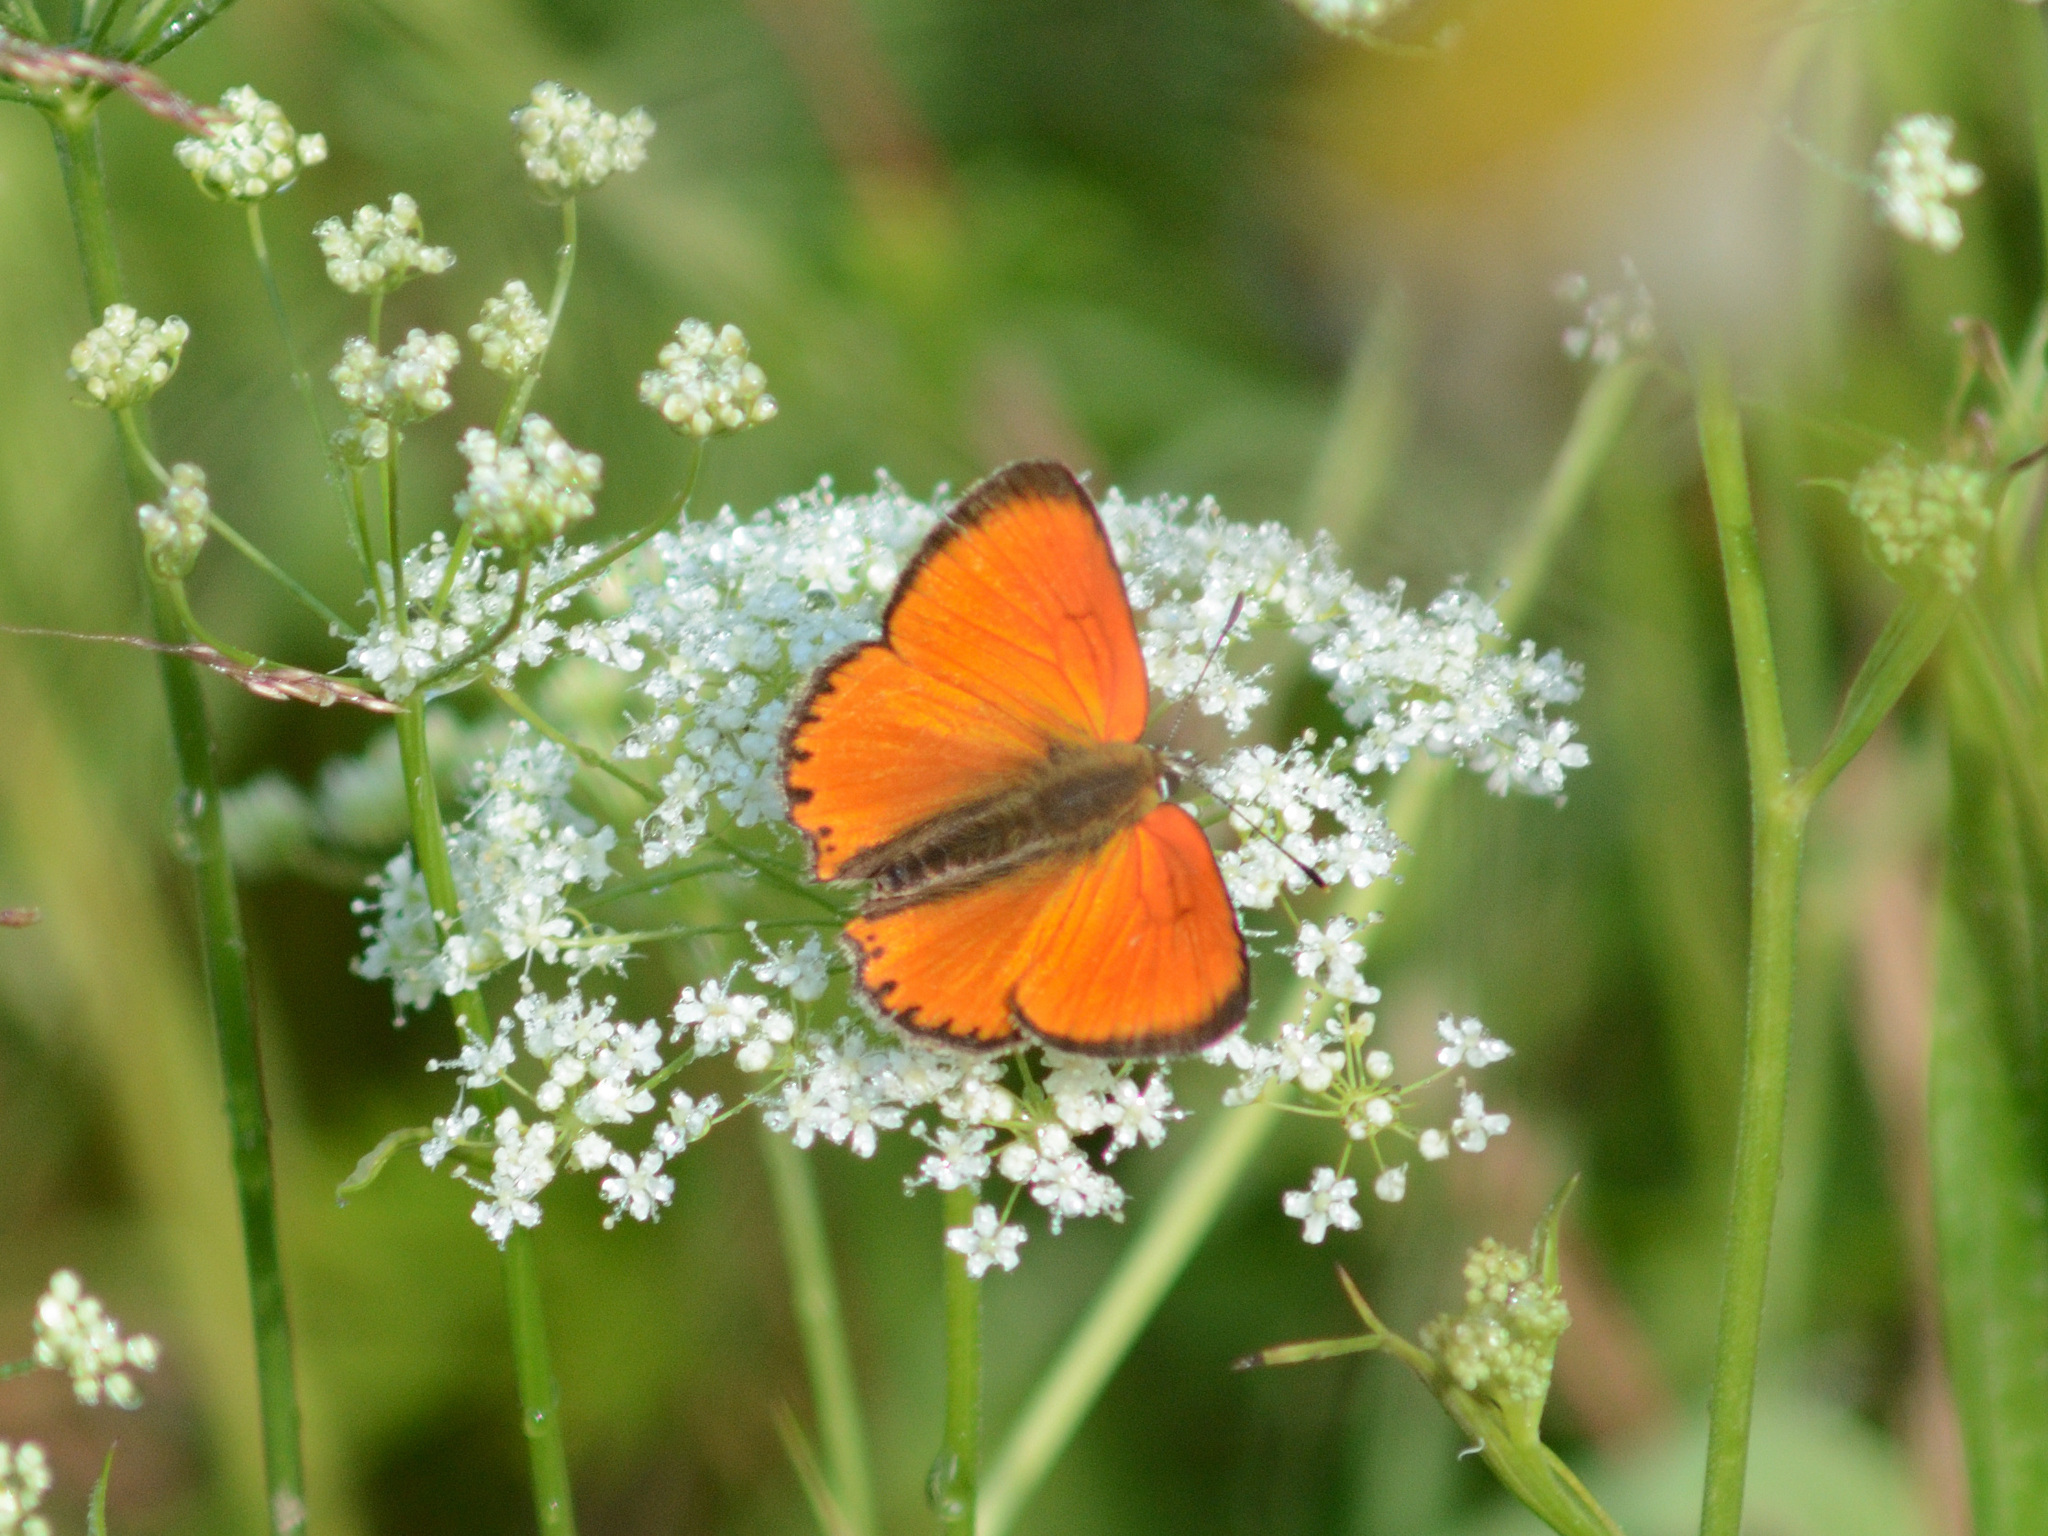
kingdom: Animalia
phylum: Arthropoda
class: Insecta
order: Lepidoptera
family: Lycaenidae
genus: Lycaena
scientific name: Lycaena virgaureae
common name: Scarce copper
